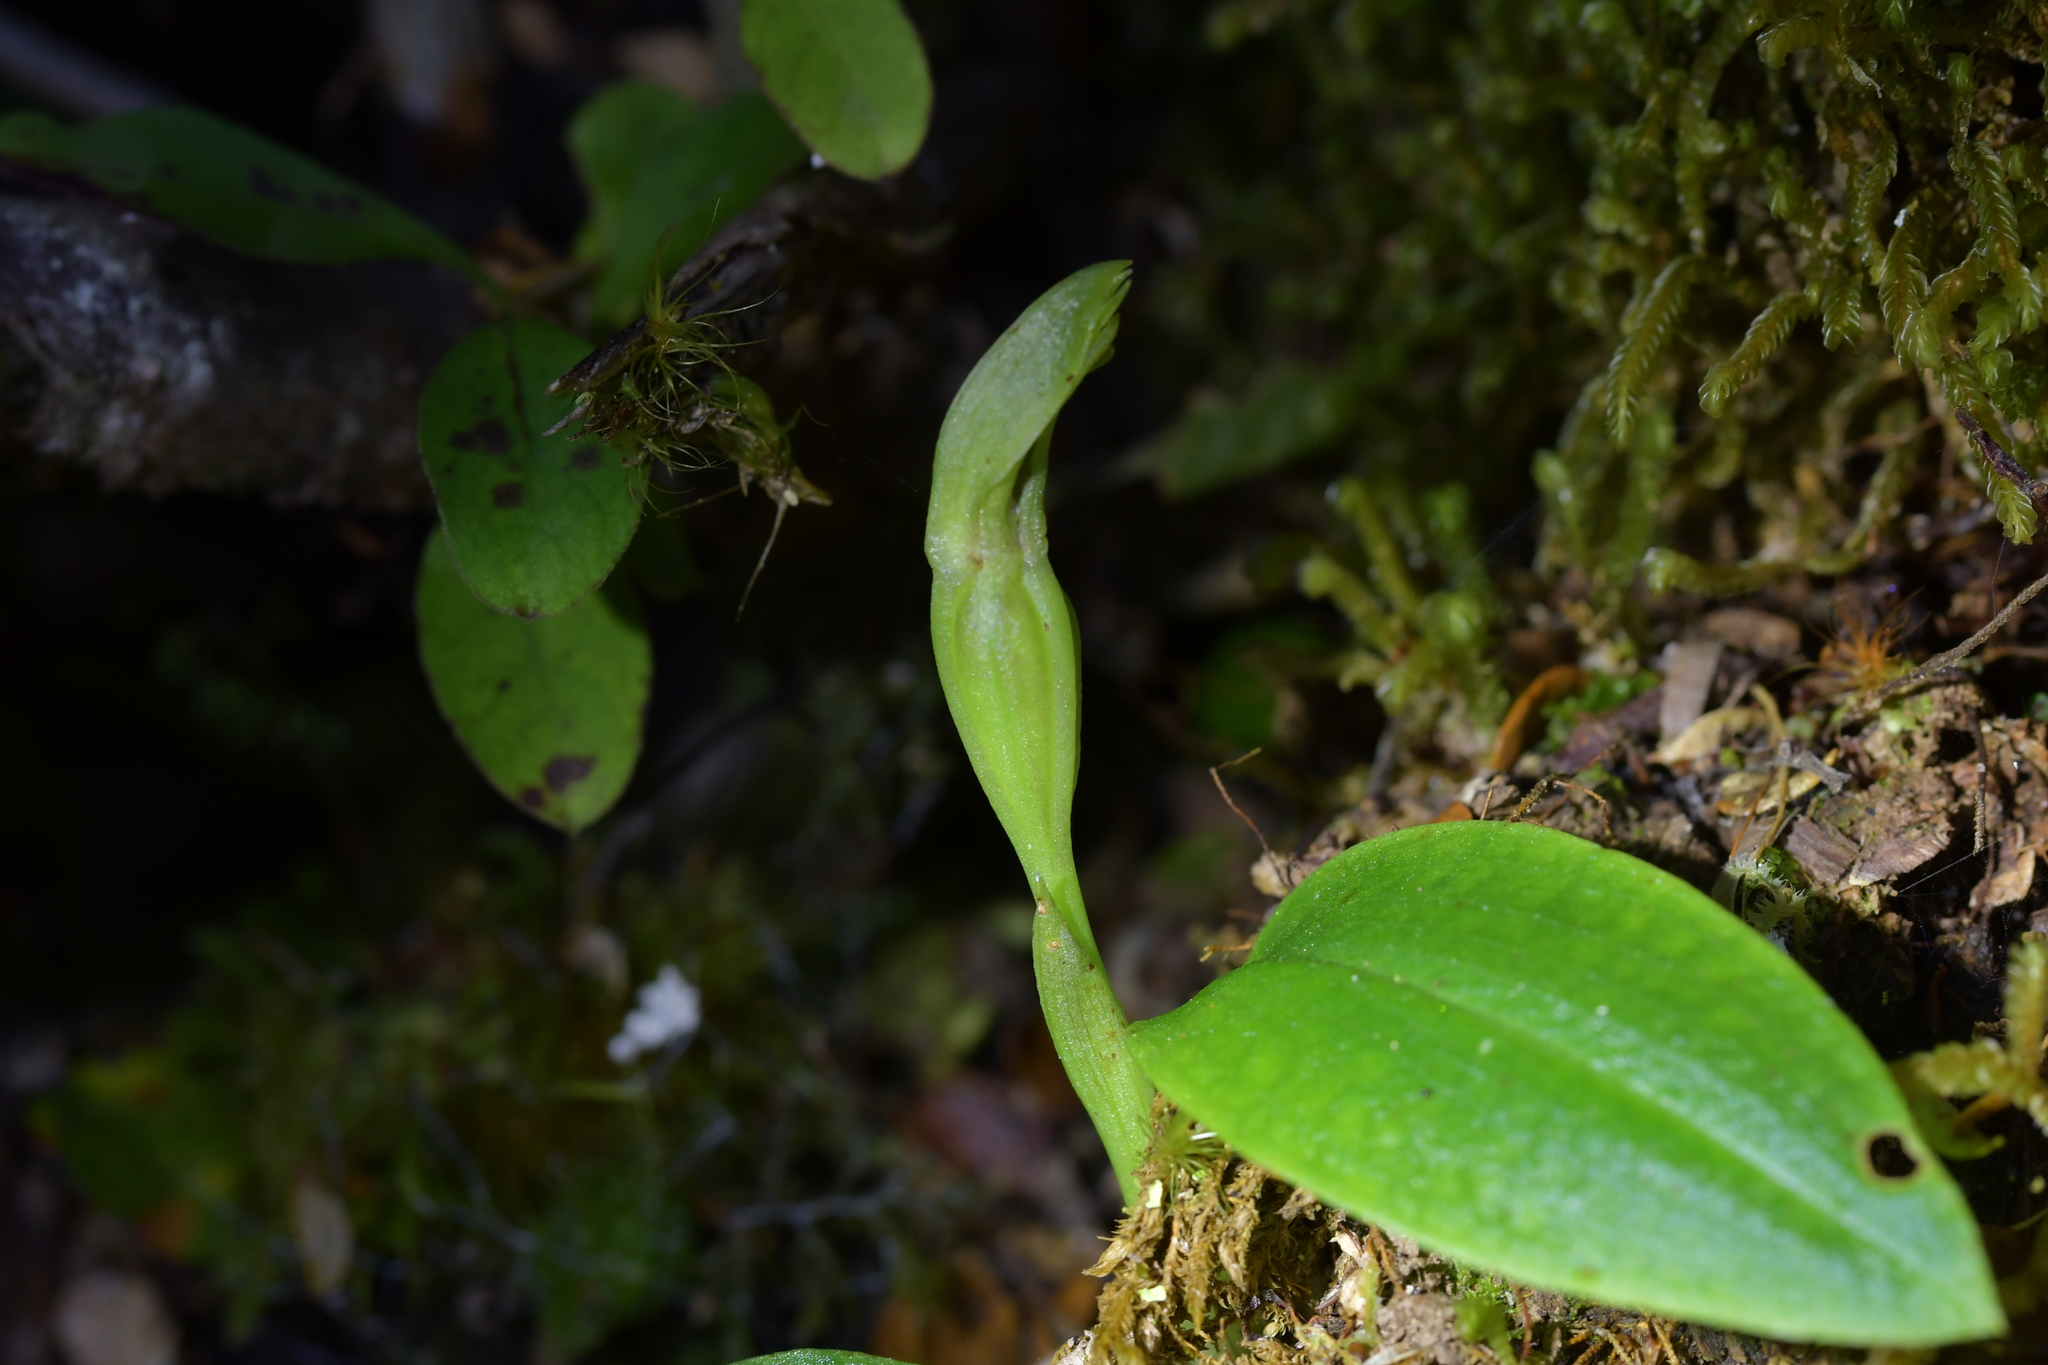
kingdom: Plantae
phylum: Tracheophyta
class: Liliopsida
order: Asparagales
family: Orchidaceae
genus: Chiloglottis
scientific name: Chiloglottis cornuta
